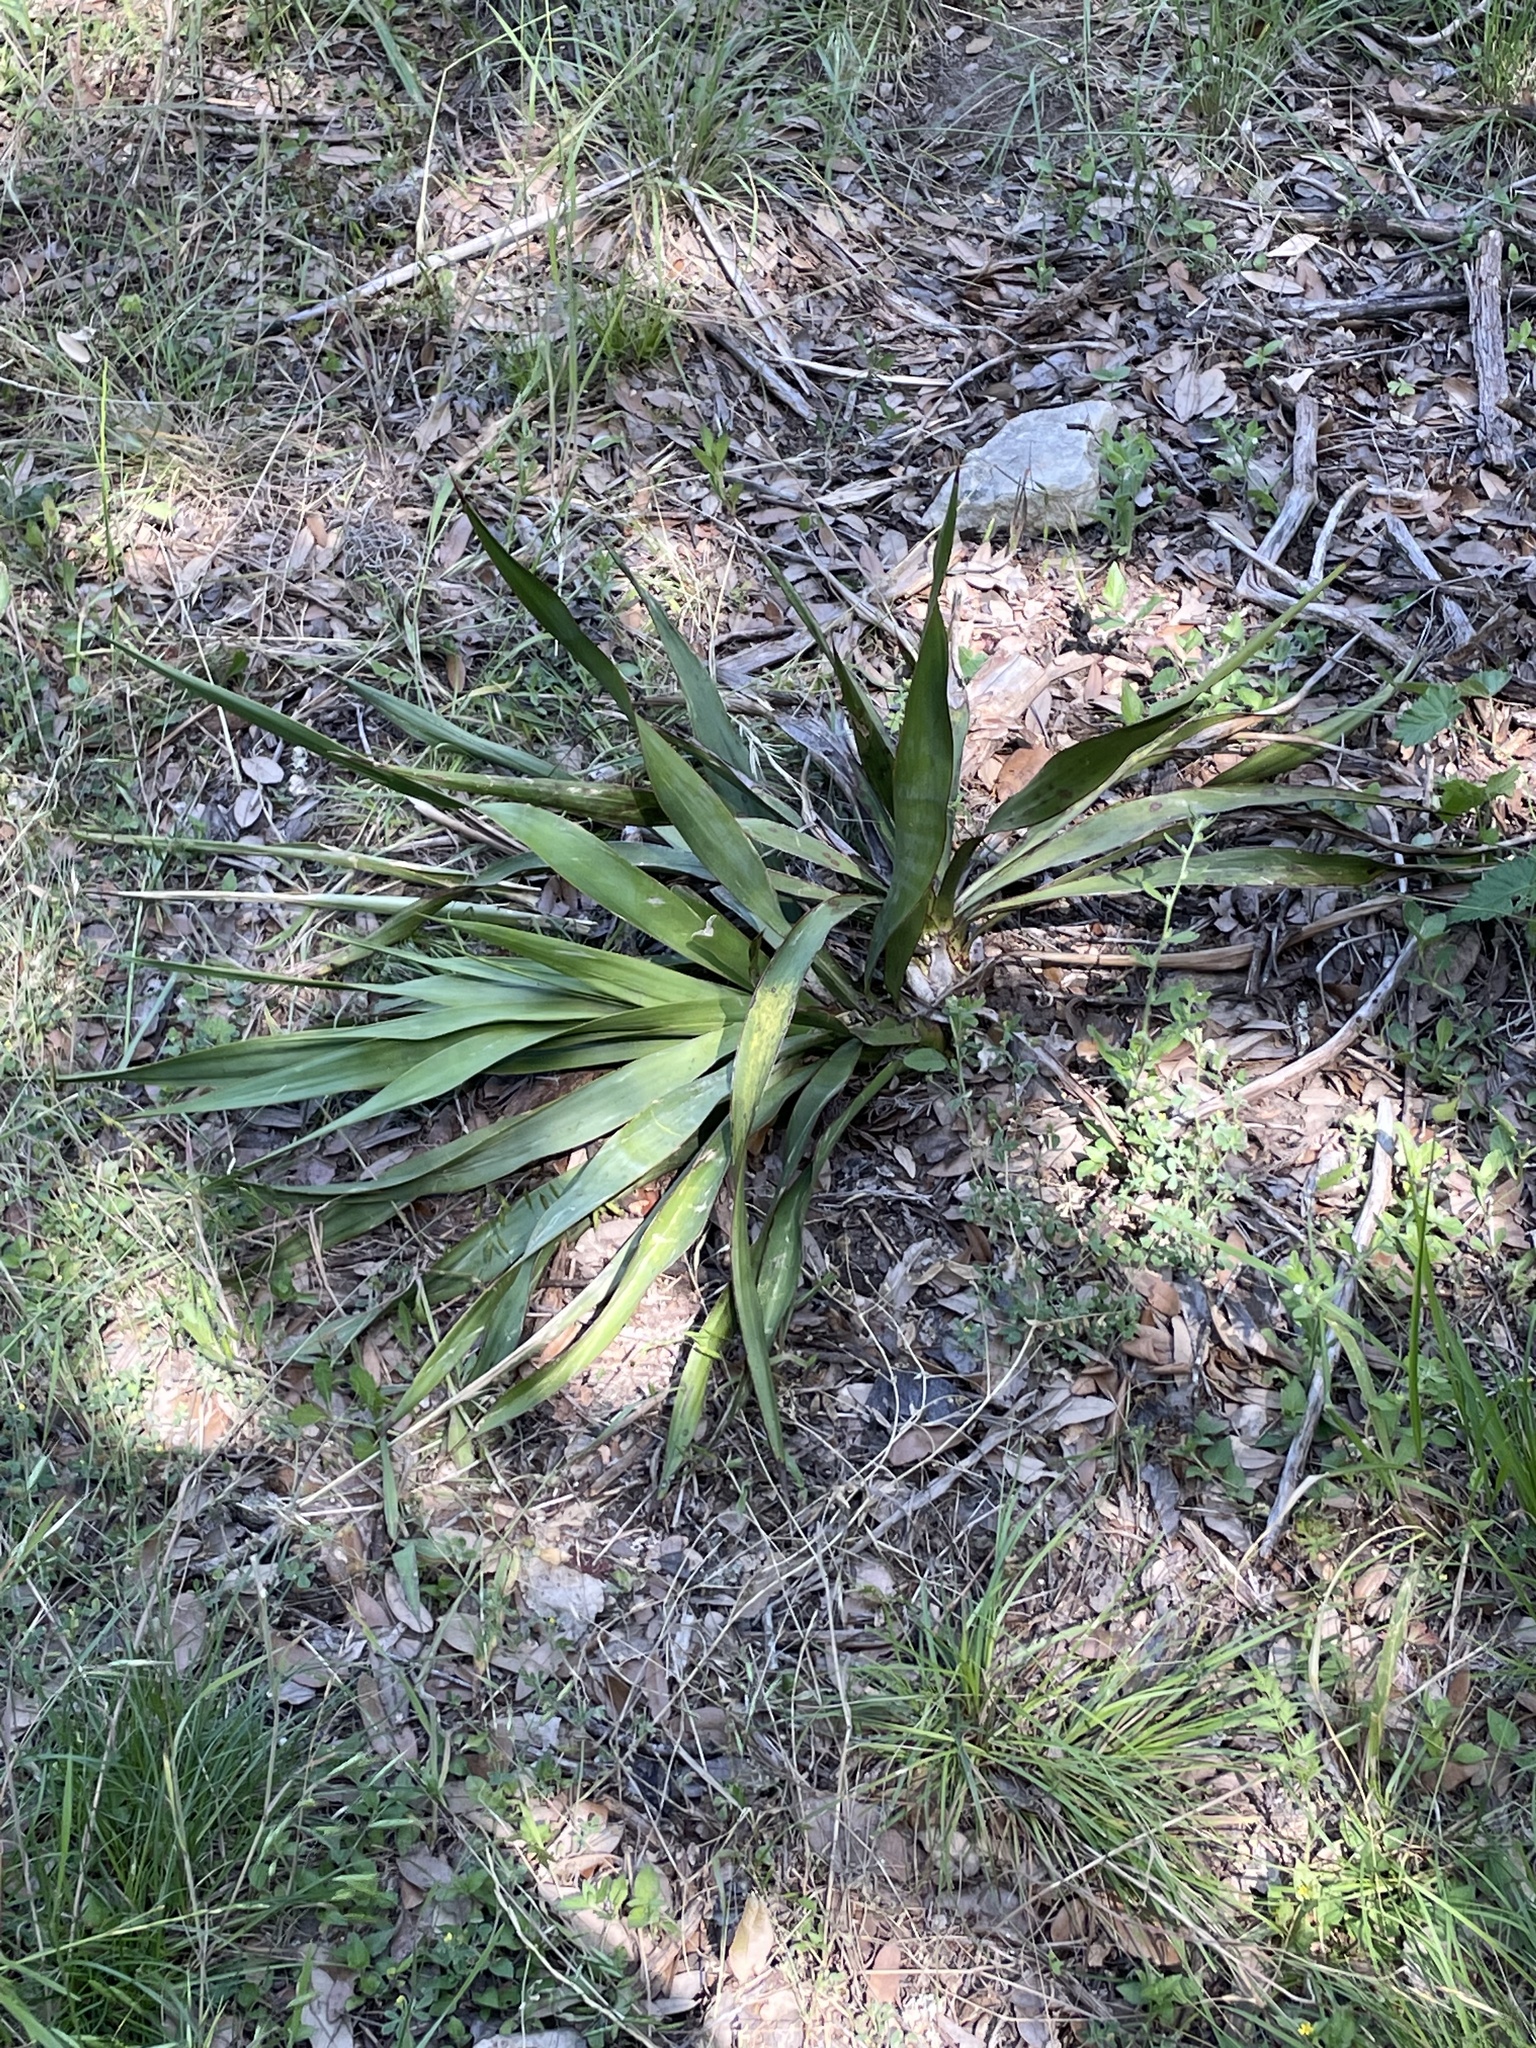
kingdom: Plantae
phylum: Tracheophyta
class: Liliopsida
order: Asparagales
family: Asparagaceae
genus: Yucca
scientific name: Yucca rupicola
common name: Twisted-leaf spanish-dagger
